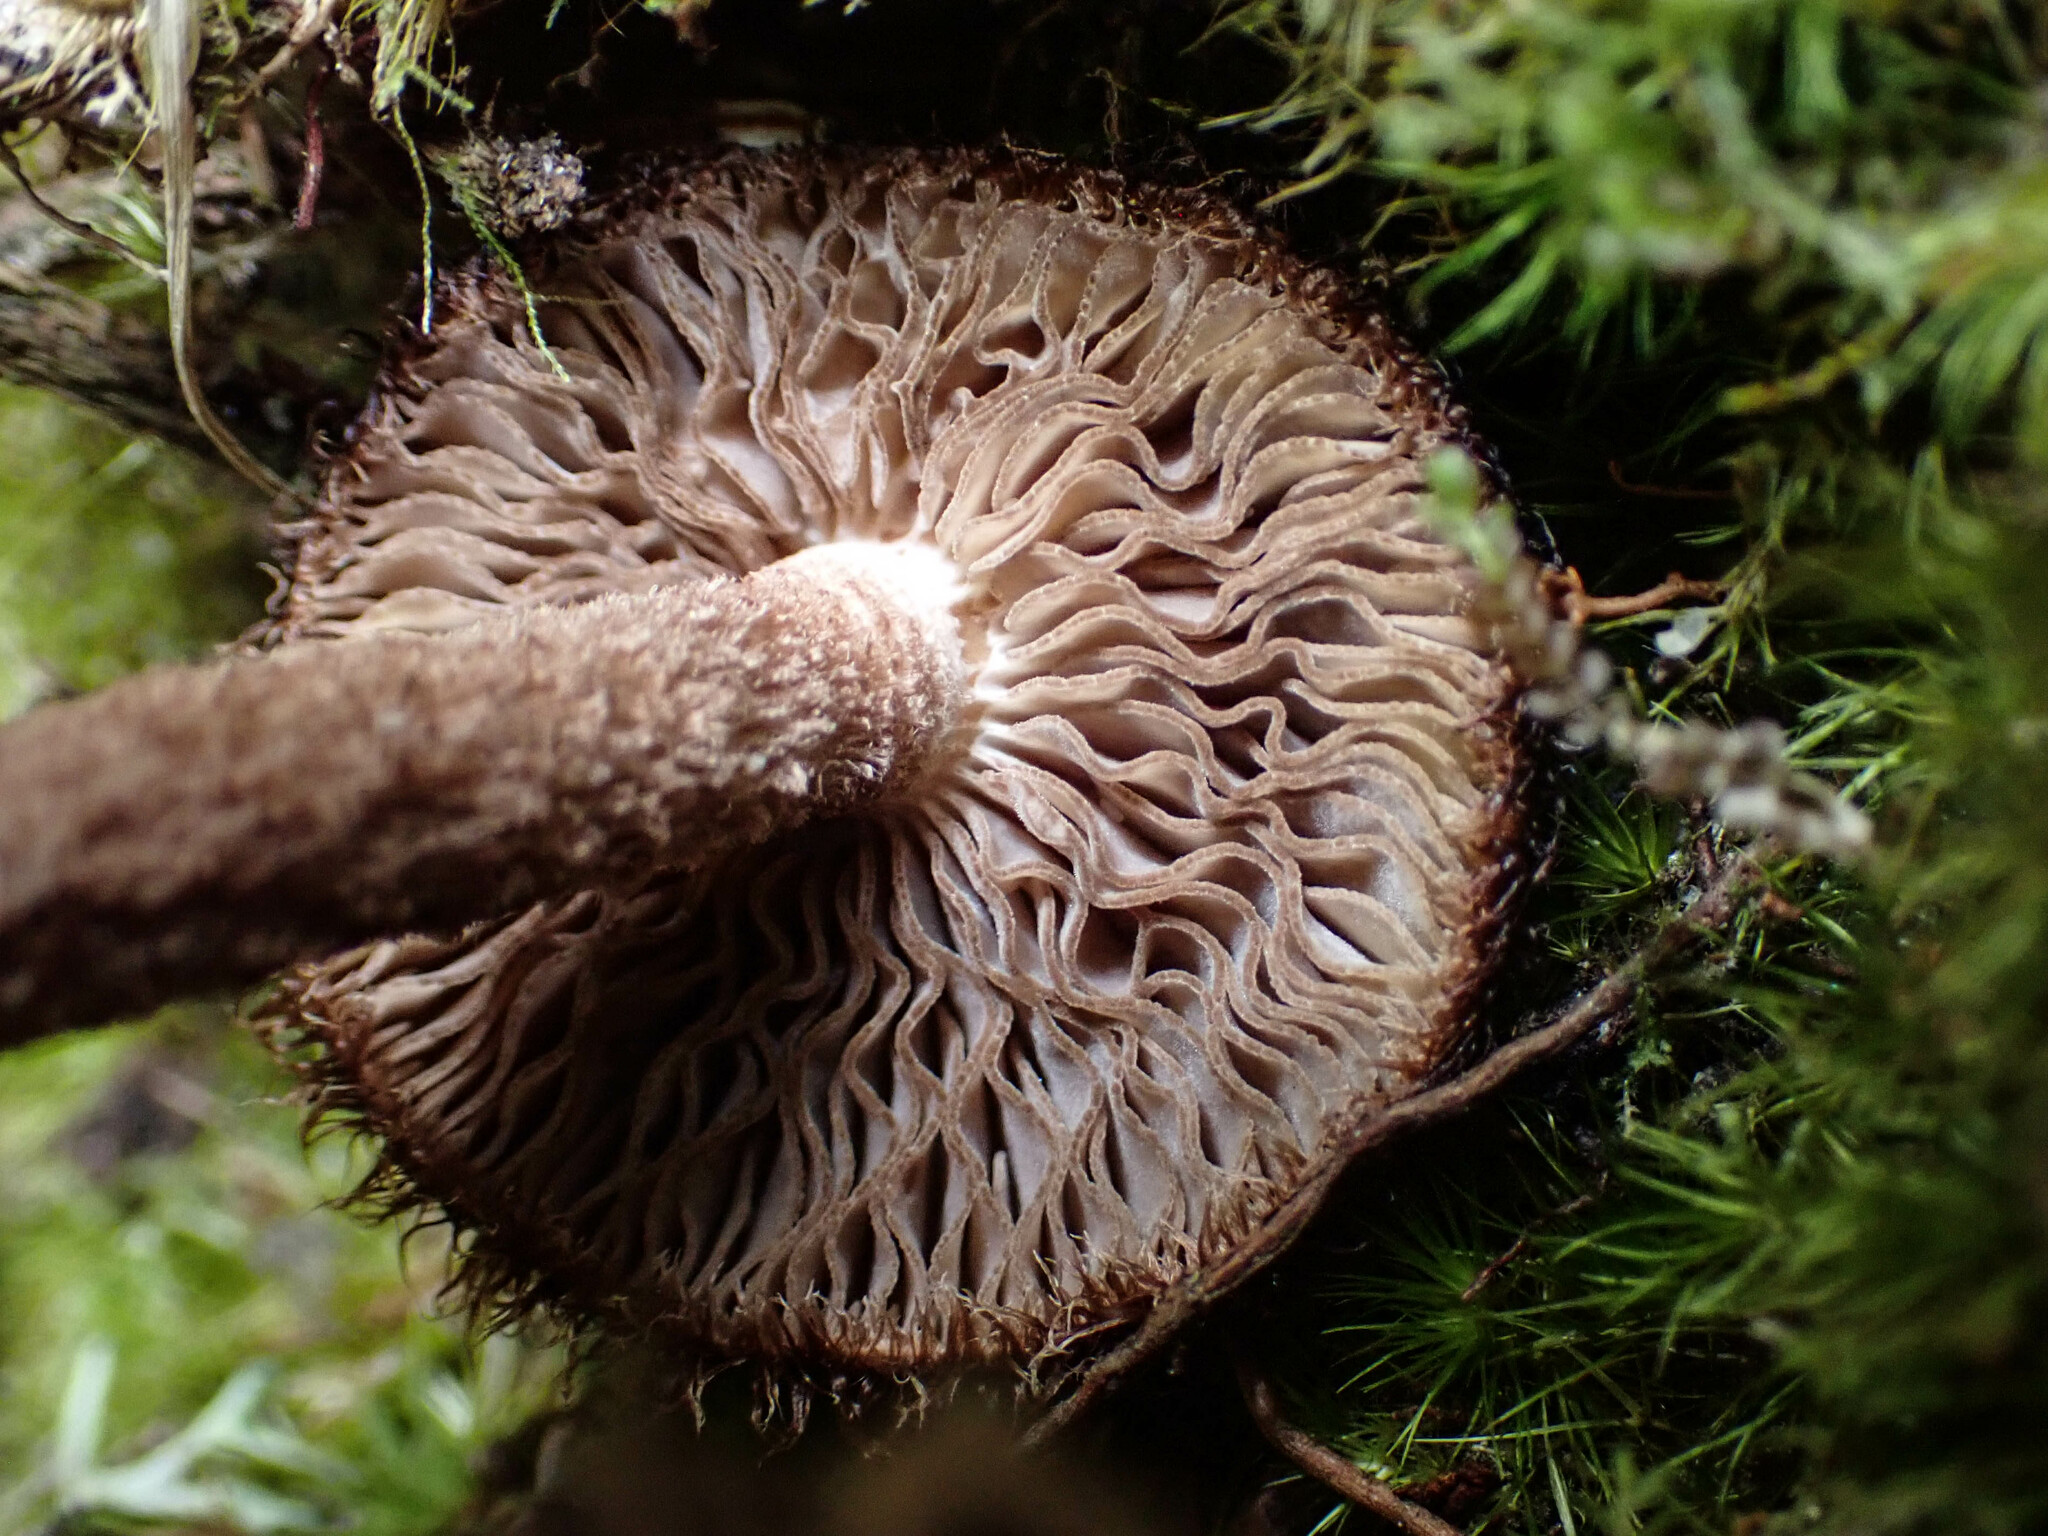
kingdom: Fungi
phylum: Basidiomycota
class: Agaricomycetes
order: Agaricales
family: Inocybaceae
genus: Inosperma
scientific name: Inosperma calamistratum
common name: Greenfoot fibrecap
